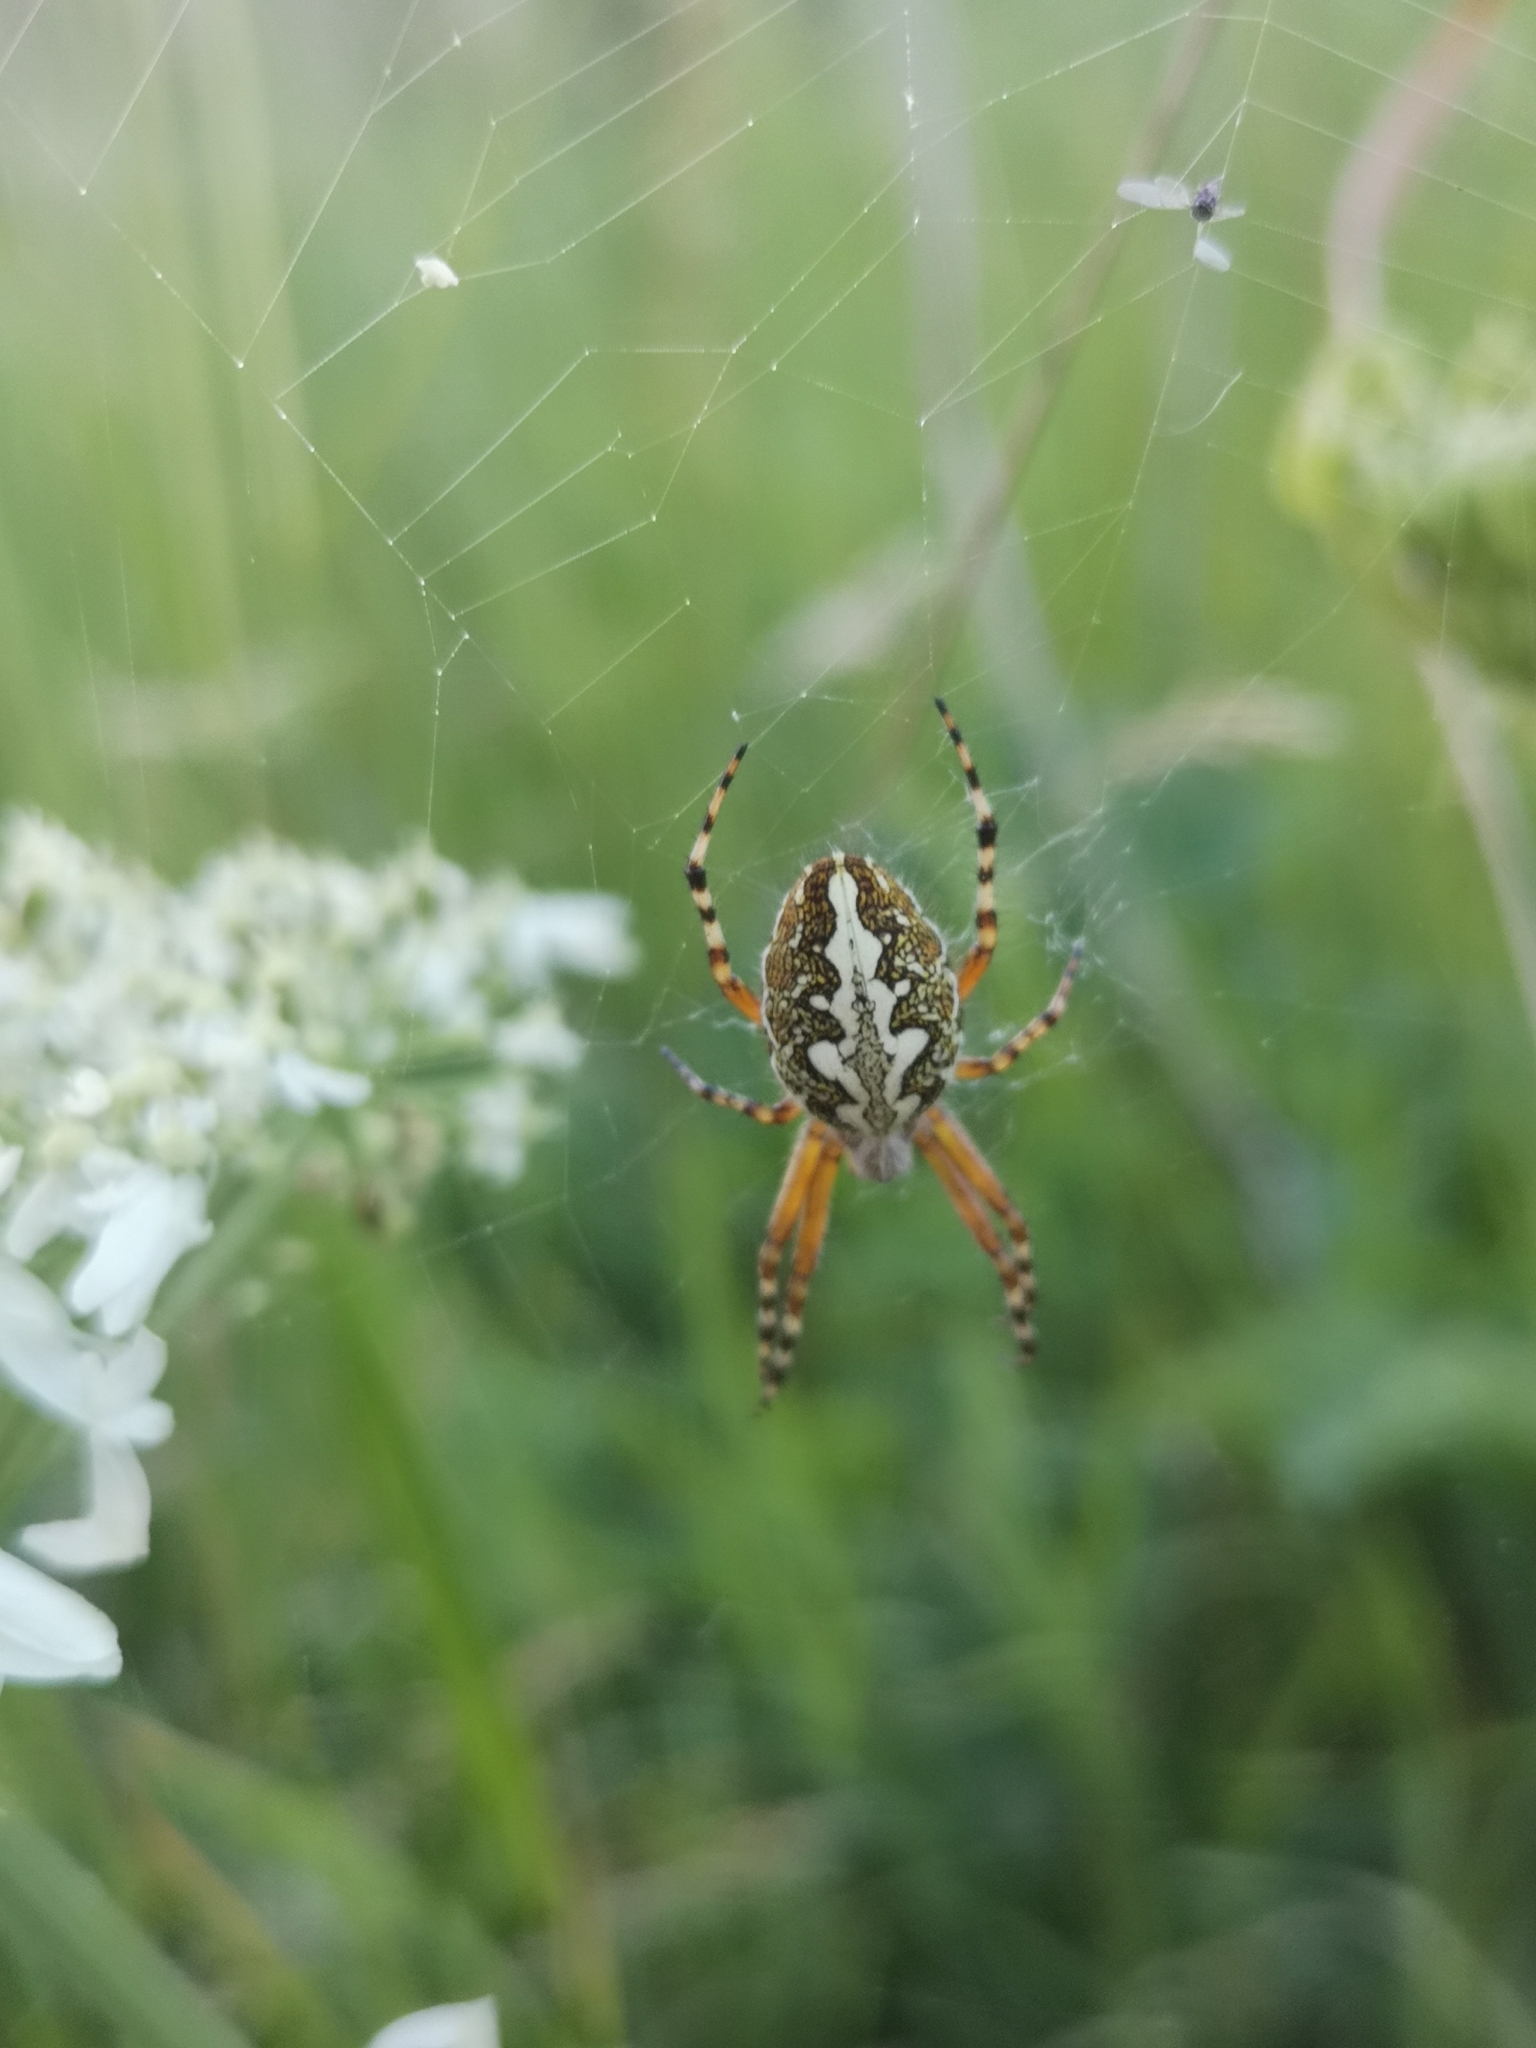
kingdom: Animalia
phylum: Arthropoda
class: Arachnida
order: Araneae
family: Araneidae
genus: Aculepeira
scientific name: Aculepeira ceropegia
